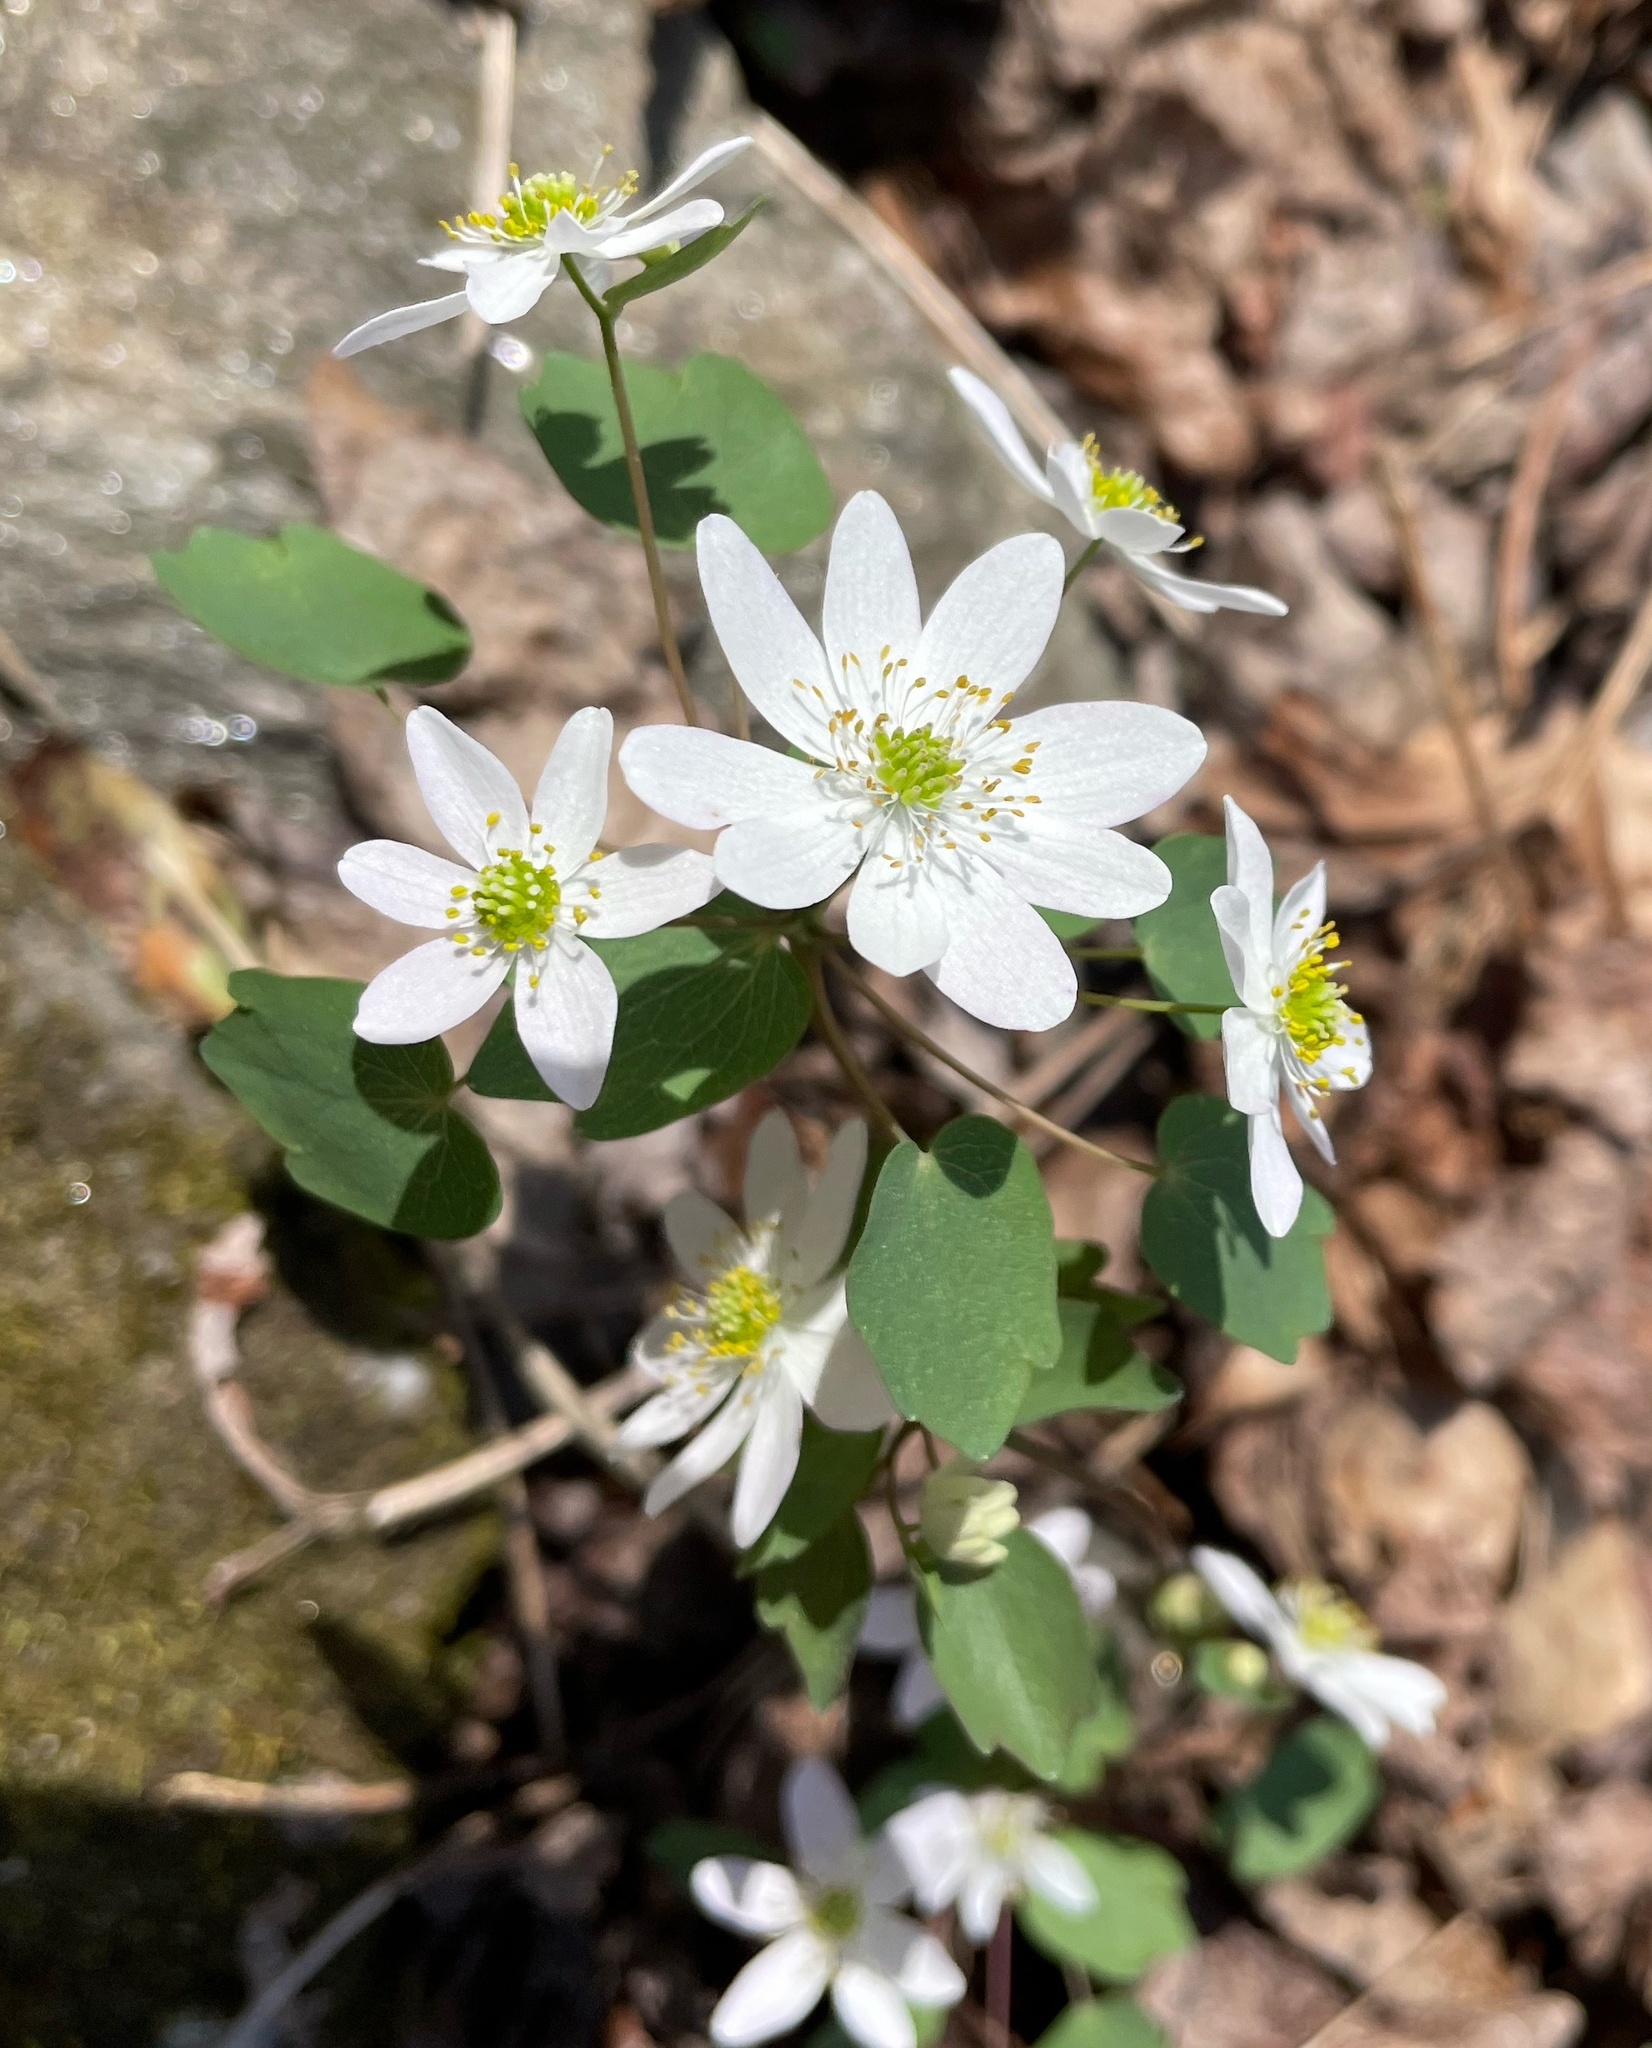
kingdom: Plantae
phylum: Tracheophyta
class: Magnoliopsida
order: Ranunculales
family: Ranunculaceae
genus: Thalictrum
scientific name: Thalictrum thalictroides
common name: Rue-anemone
